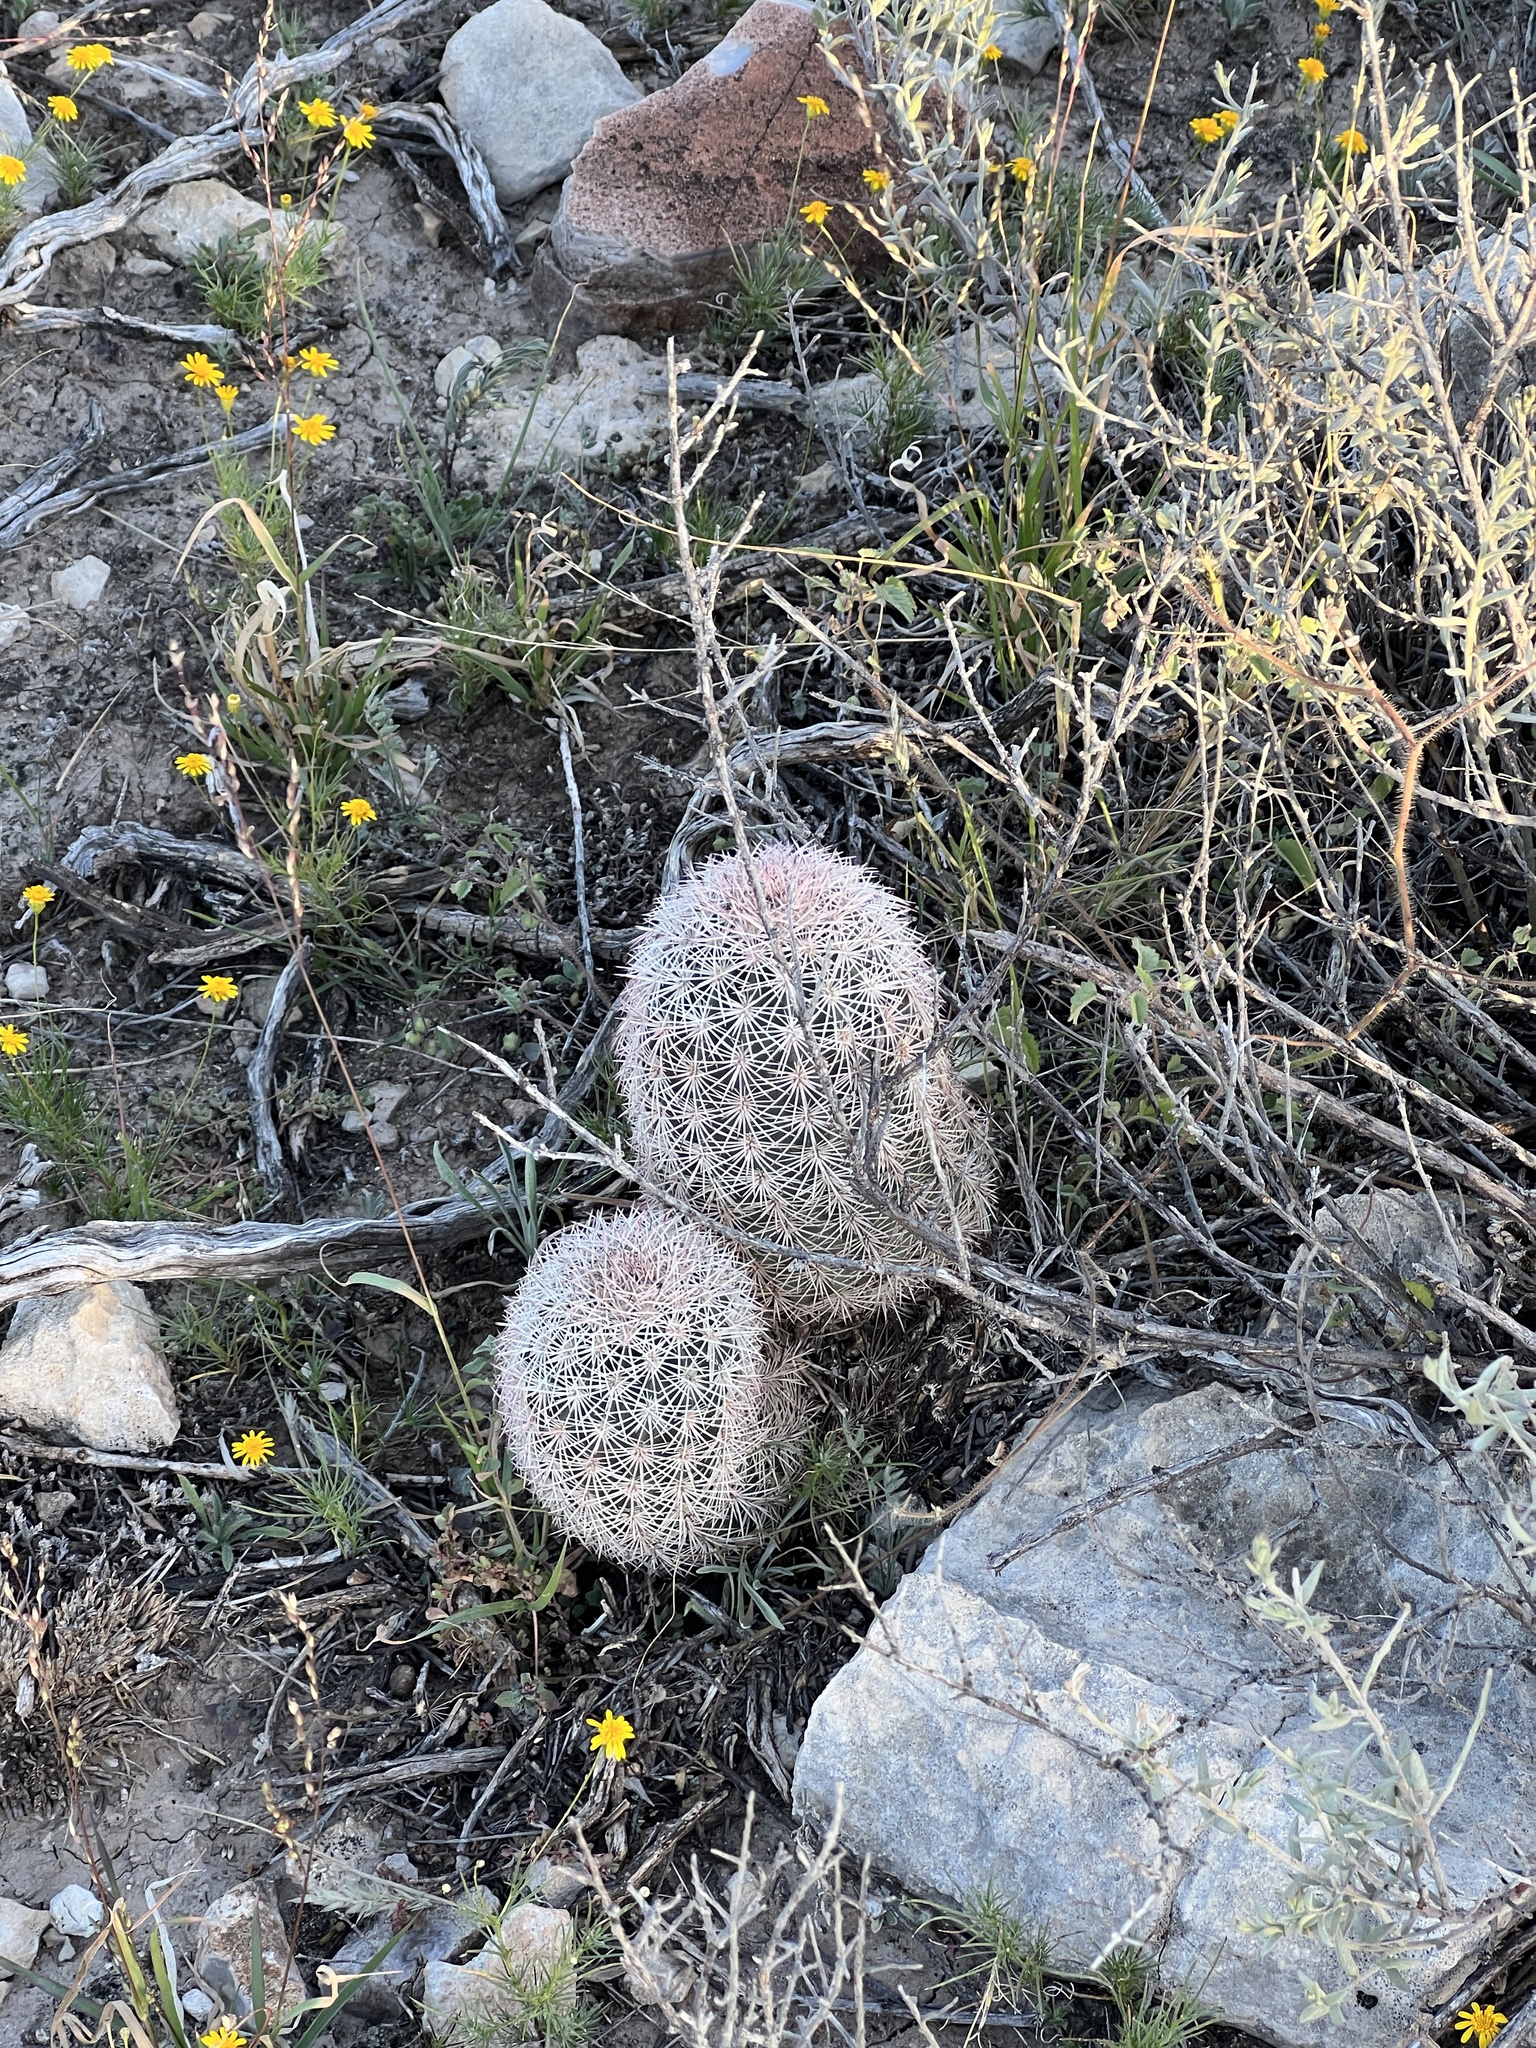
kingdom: Plantae
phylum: Tracheophyta
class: Magnoliopsida
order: Caryophyllales
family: Cactaceae
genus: Echinocereus
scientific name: Echinocereus dasyacanthus
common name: Spiny hedgehog cactus
